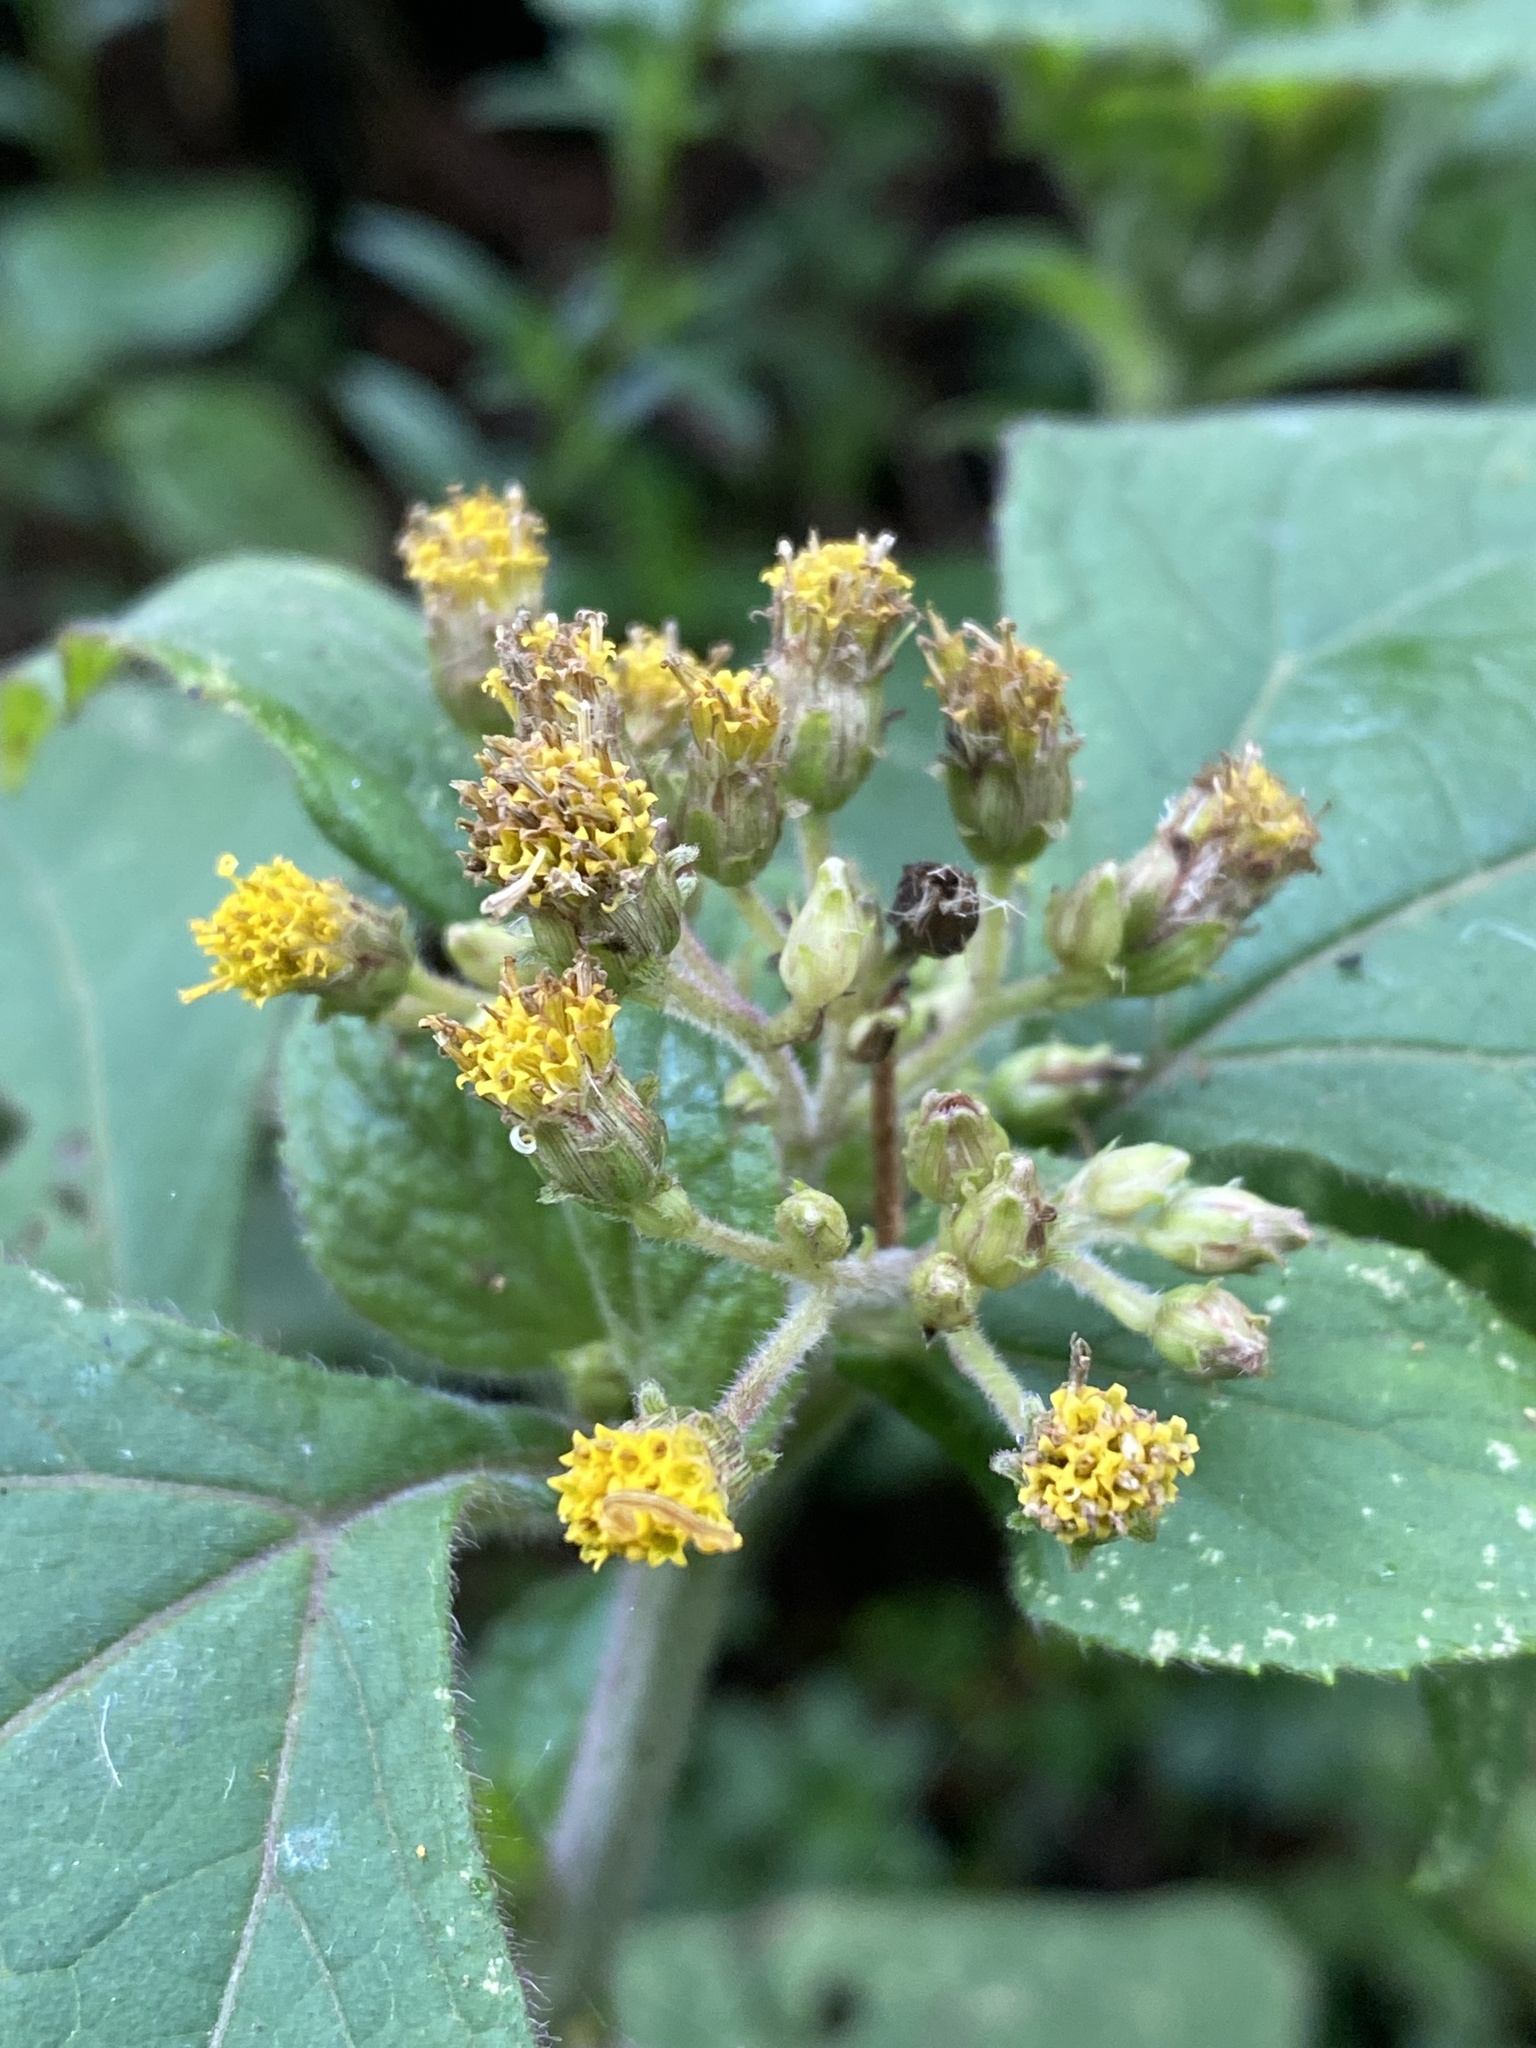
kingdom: Plantae
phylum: Tracheophyta
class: Magnoliopsida
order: Asterales
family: Asteraceae
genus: Schistocarpha
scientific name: Schistocarpha eupatorioides
